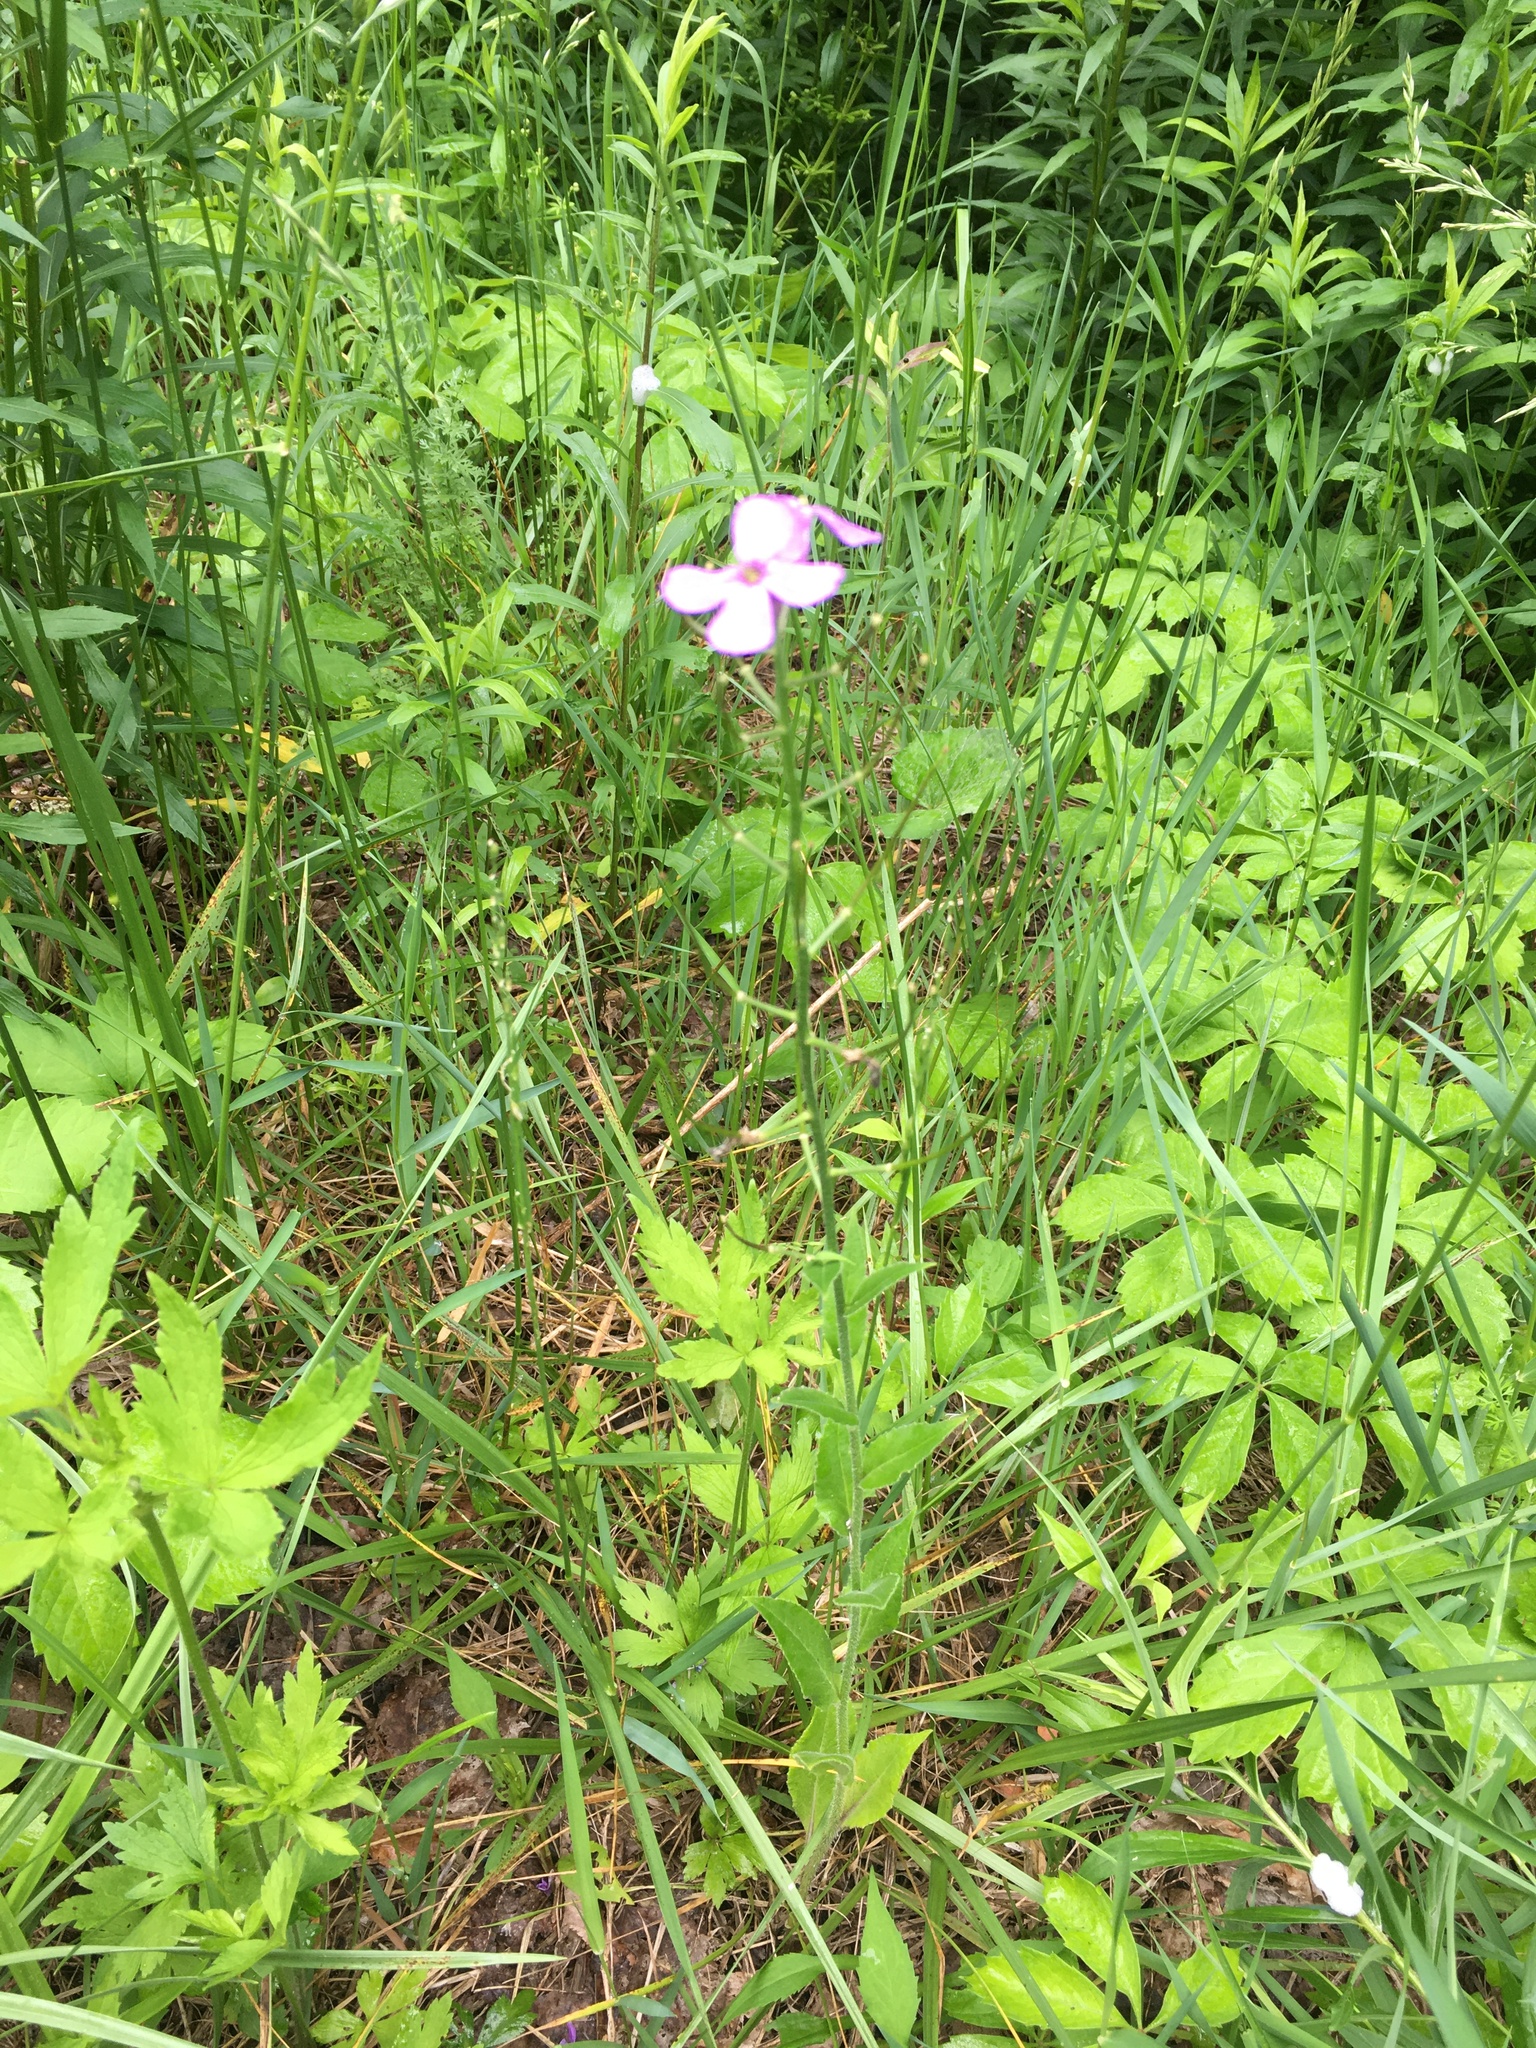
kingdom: Plantae
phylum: Tracheophyta
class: Magnoliopsida
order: Brassicales
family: Brassicaceae
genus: Hesperis
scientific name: Hesperis matronalis
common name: Dame's-violet
